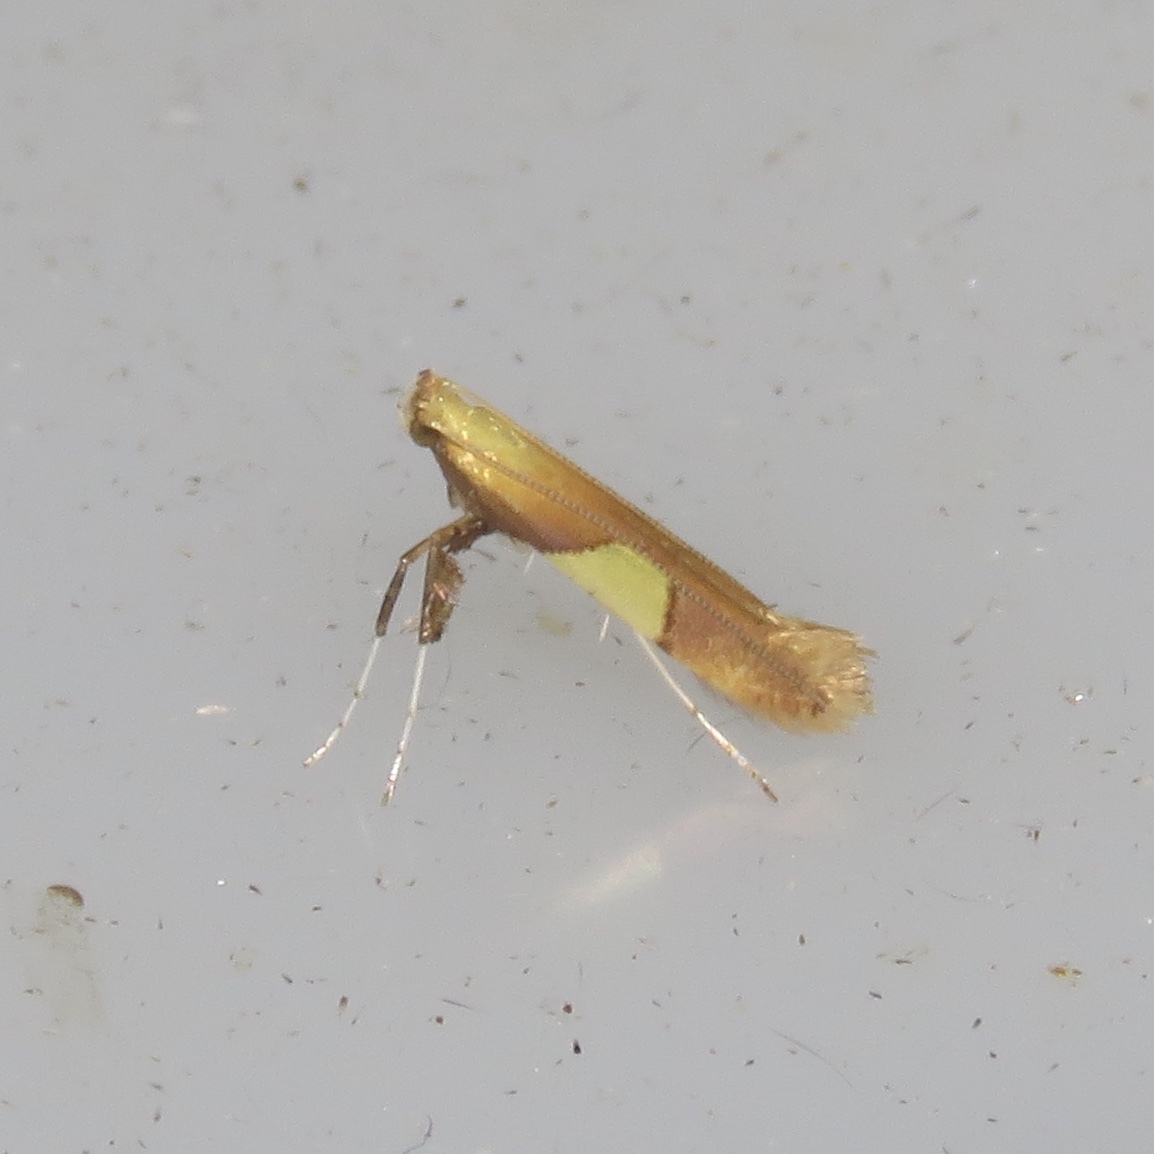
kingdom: Animalia
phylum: Arthropoda
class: Insecta
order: Lepidoptera
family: Gracillariidae
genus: Caloptilia
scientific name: Caloptilia packardella
